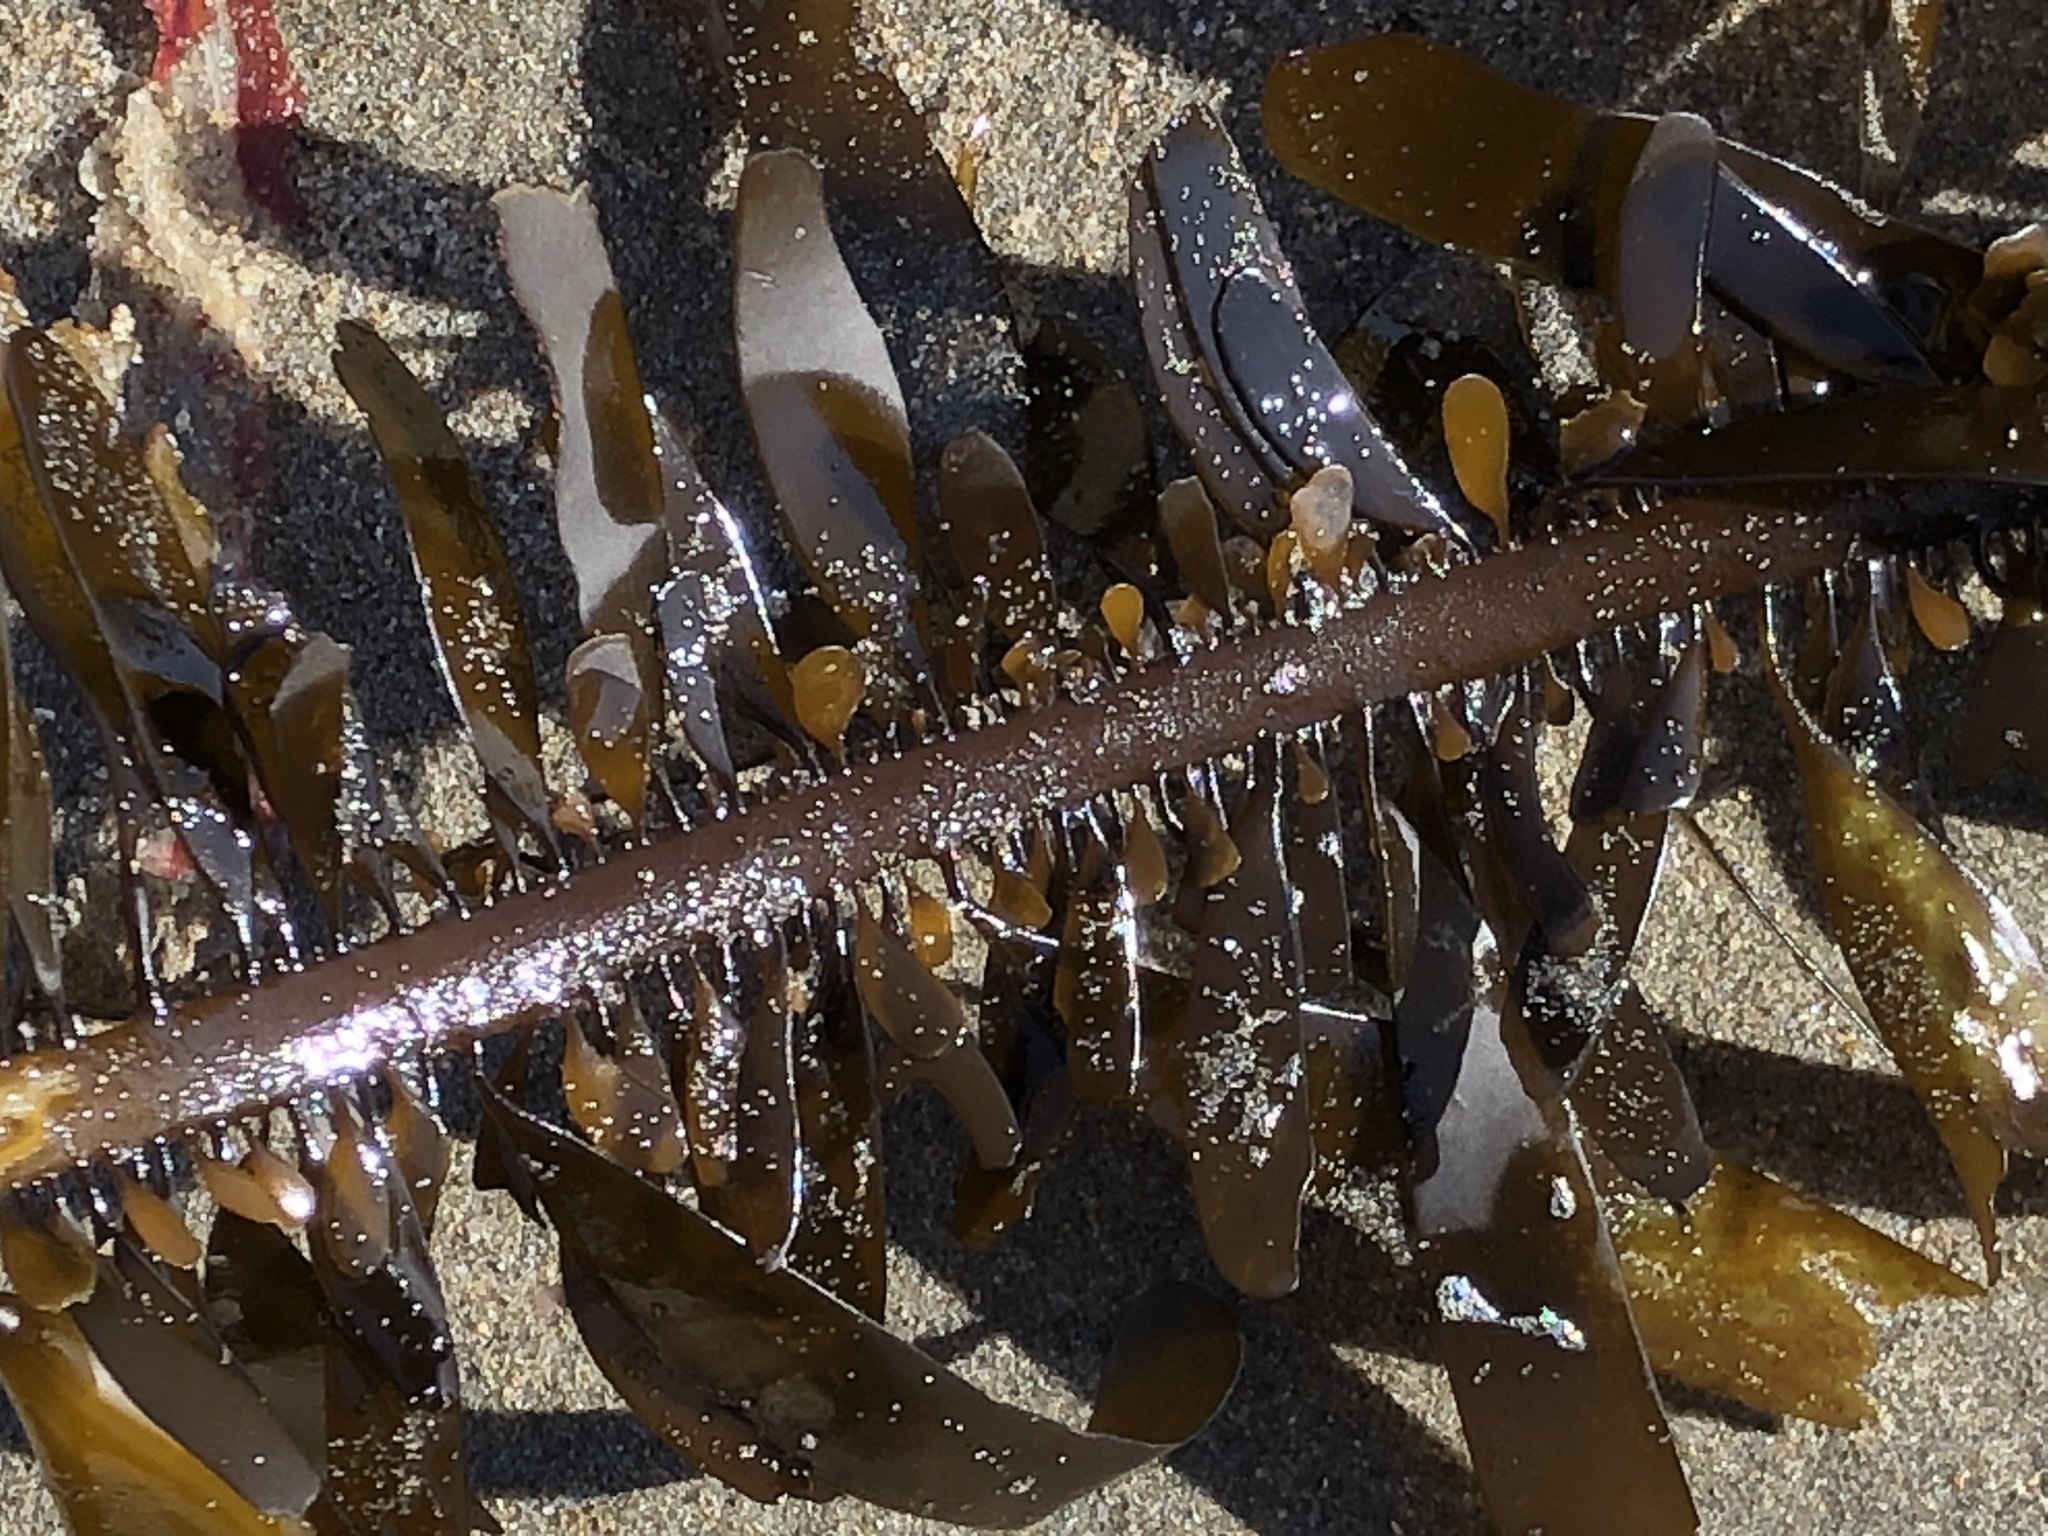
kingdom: Chromista
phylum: Ochrophyta
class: Phaeophyceae
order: Laminariales
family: Lessoniaceae
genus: Egregia
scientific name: Egregia menziesii
